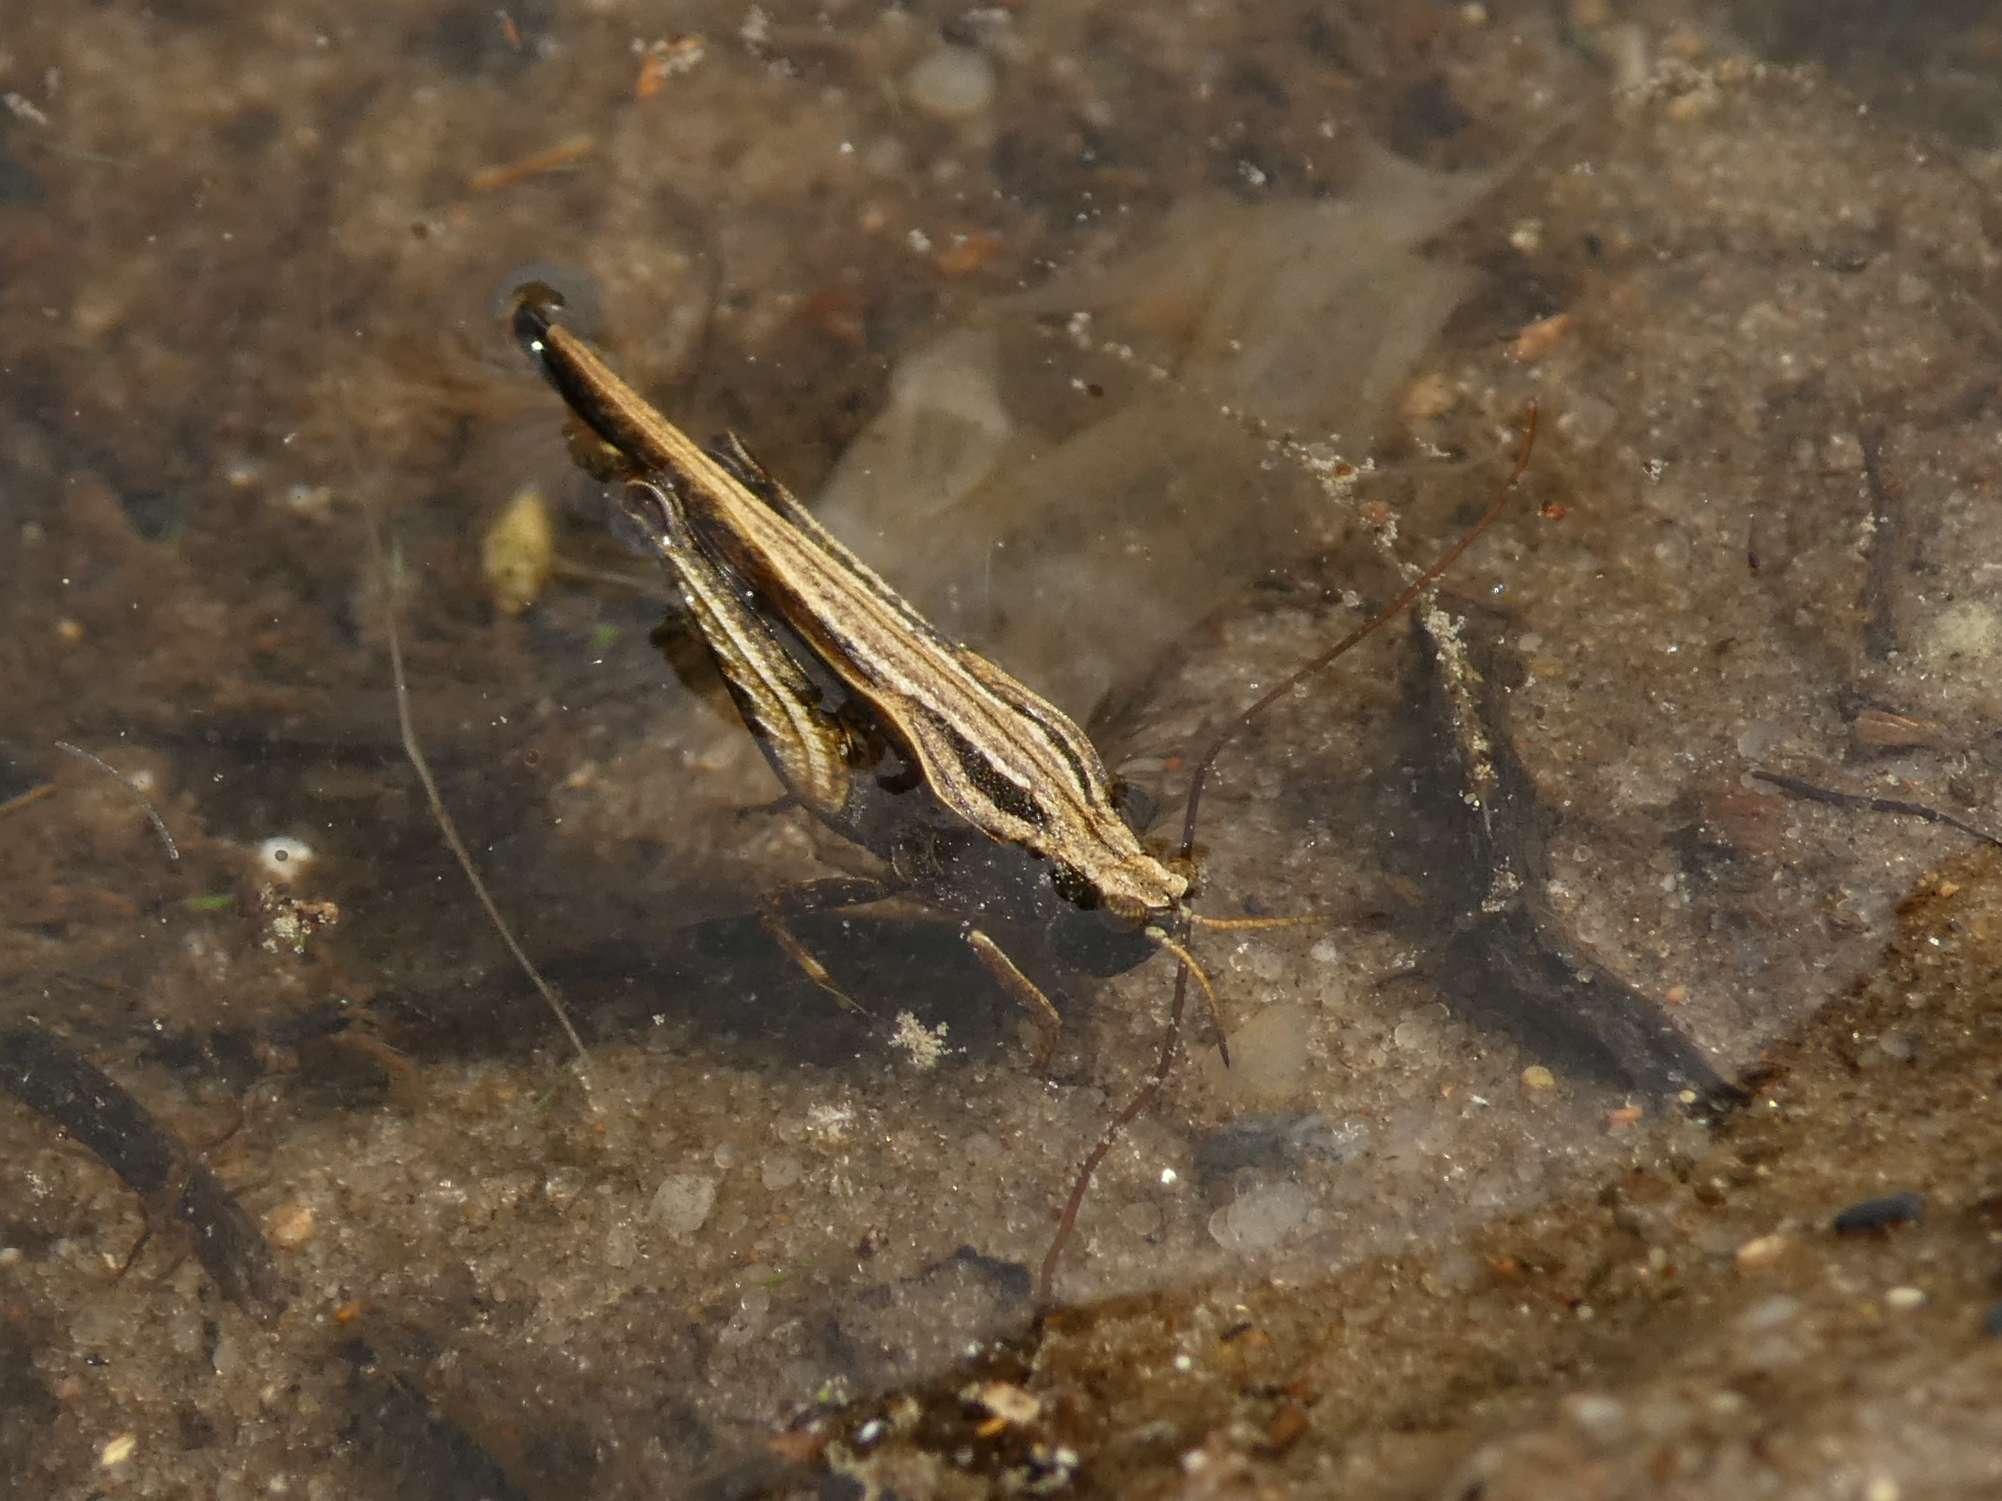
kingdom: Animalia
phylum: Arthropoda
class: Insecta
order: Orthoptera
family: Tetrigidae
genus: Tetrix
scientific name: Tetrix subulata
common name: Slender ground-hopper
